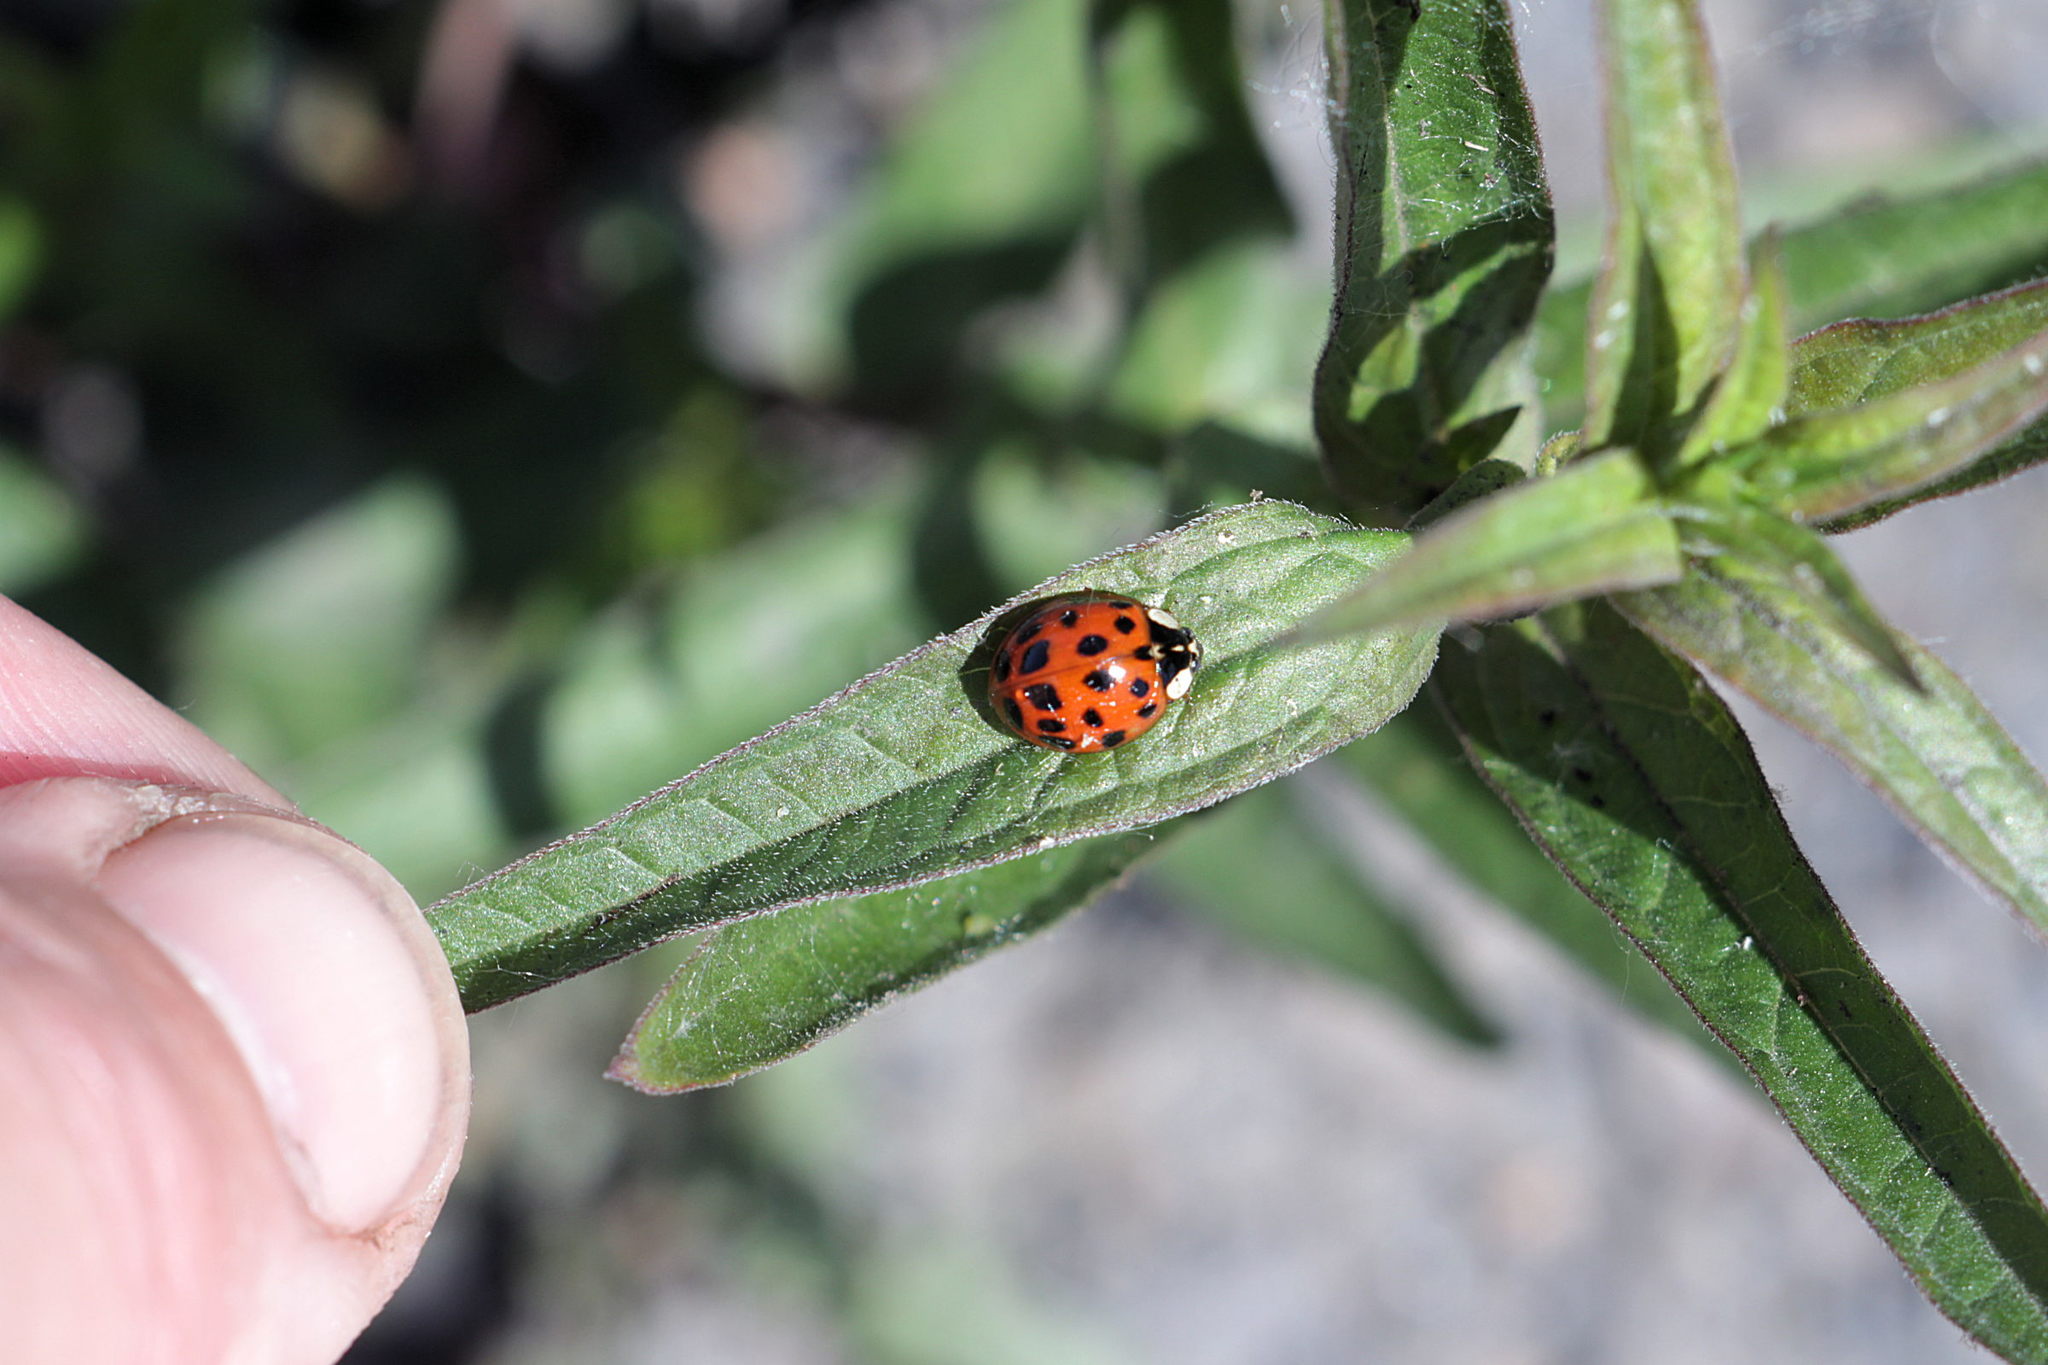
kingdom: Animalia
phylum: Arthropoda
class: Insecta
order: Coleoptera
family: Coccinellidae
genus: Harmonia
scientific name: Harmonia axyridis
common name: Harlequin ladybird
